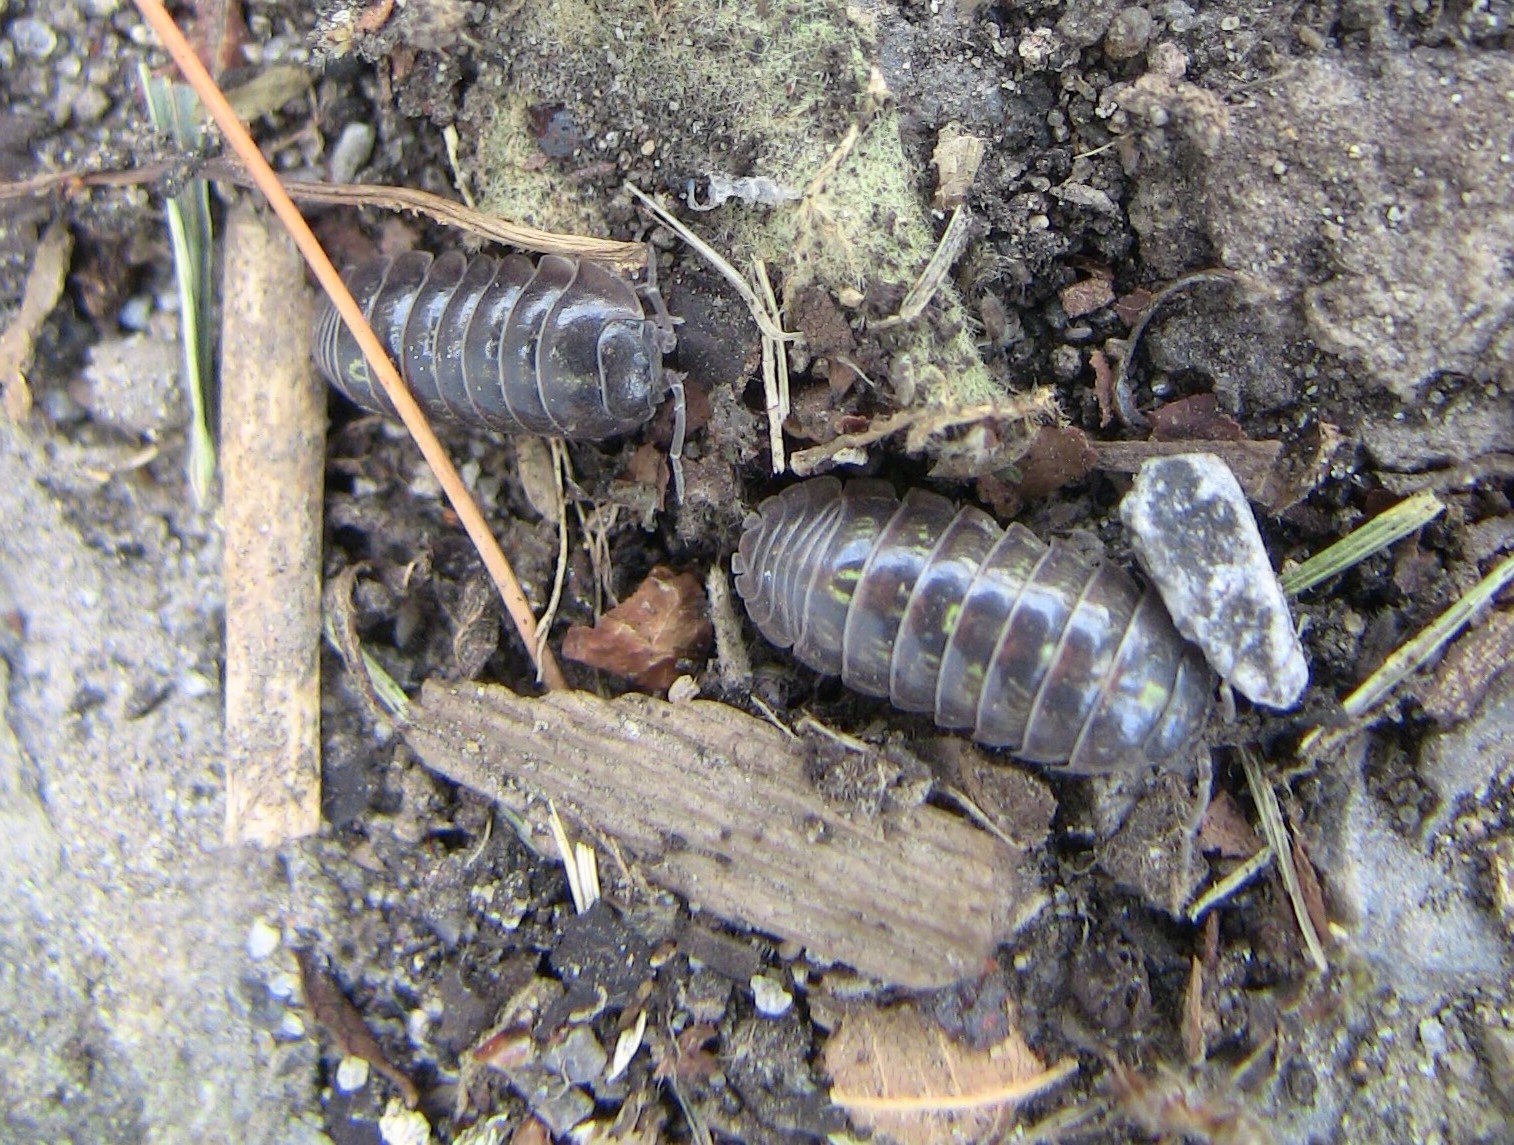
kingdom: Animalia
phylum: Arthropoda
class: Malacostraca
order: Isopoda
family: Armadillidiidae
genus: Armadillidium
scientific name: Armadillidium vulgare
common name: Common pill woodlouse
